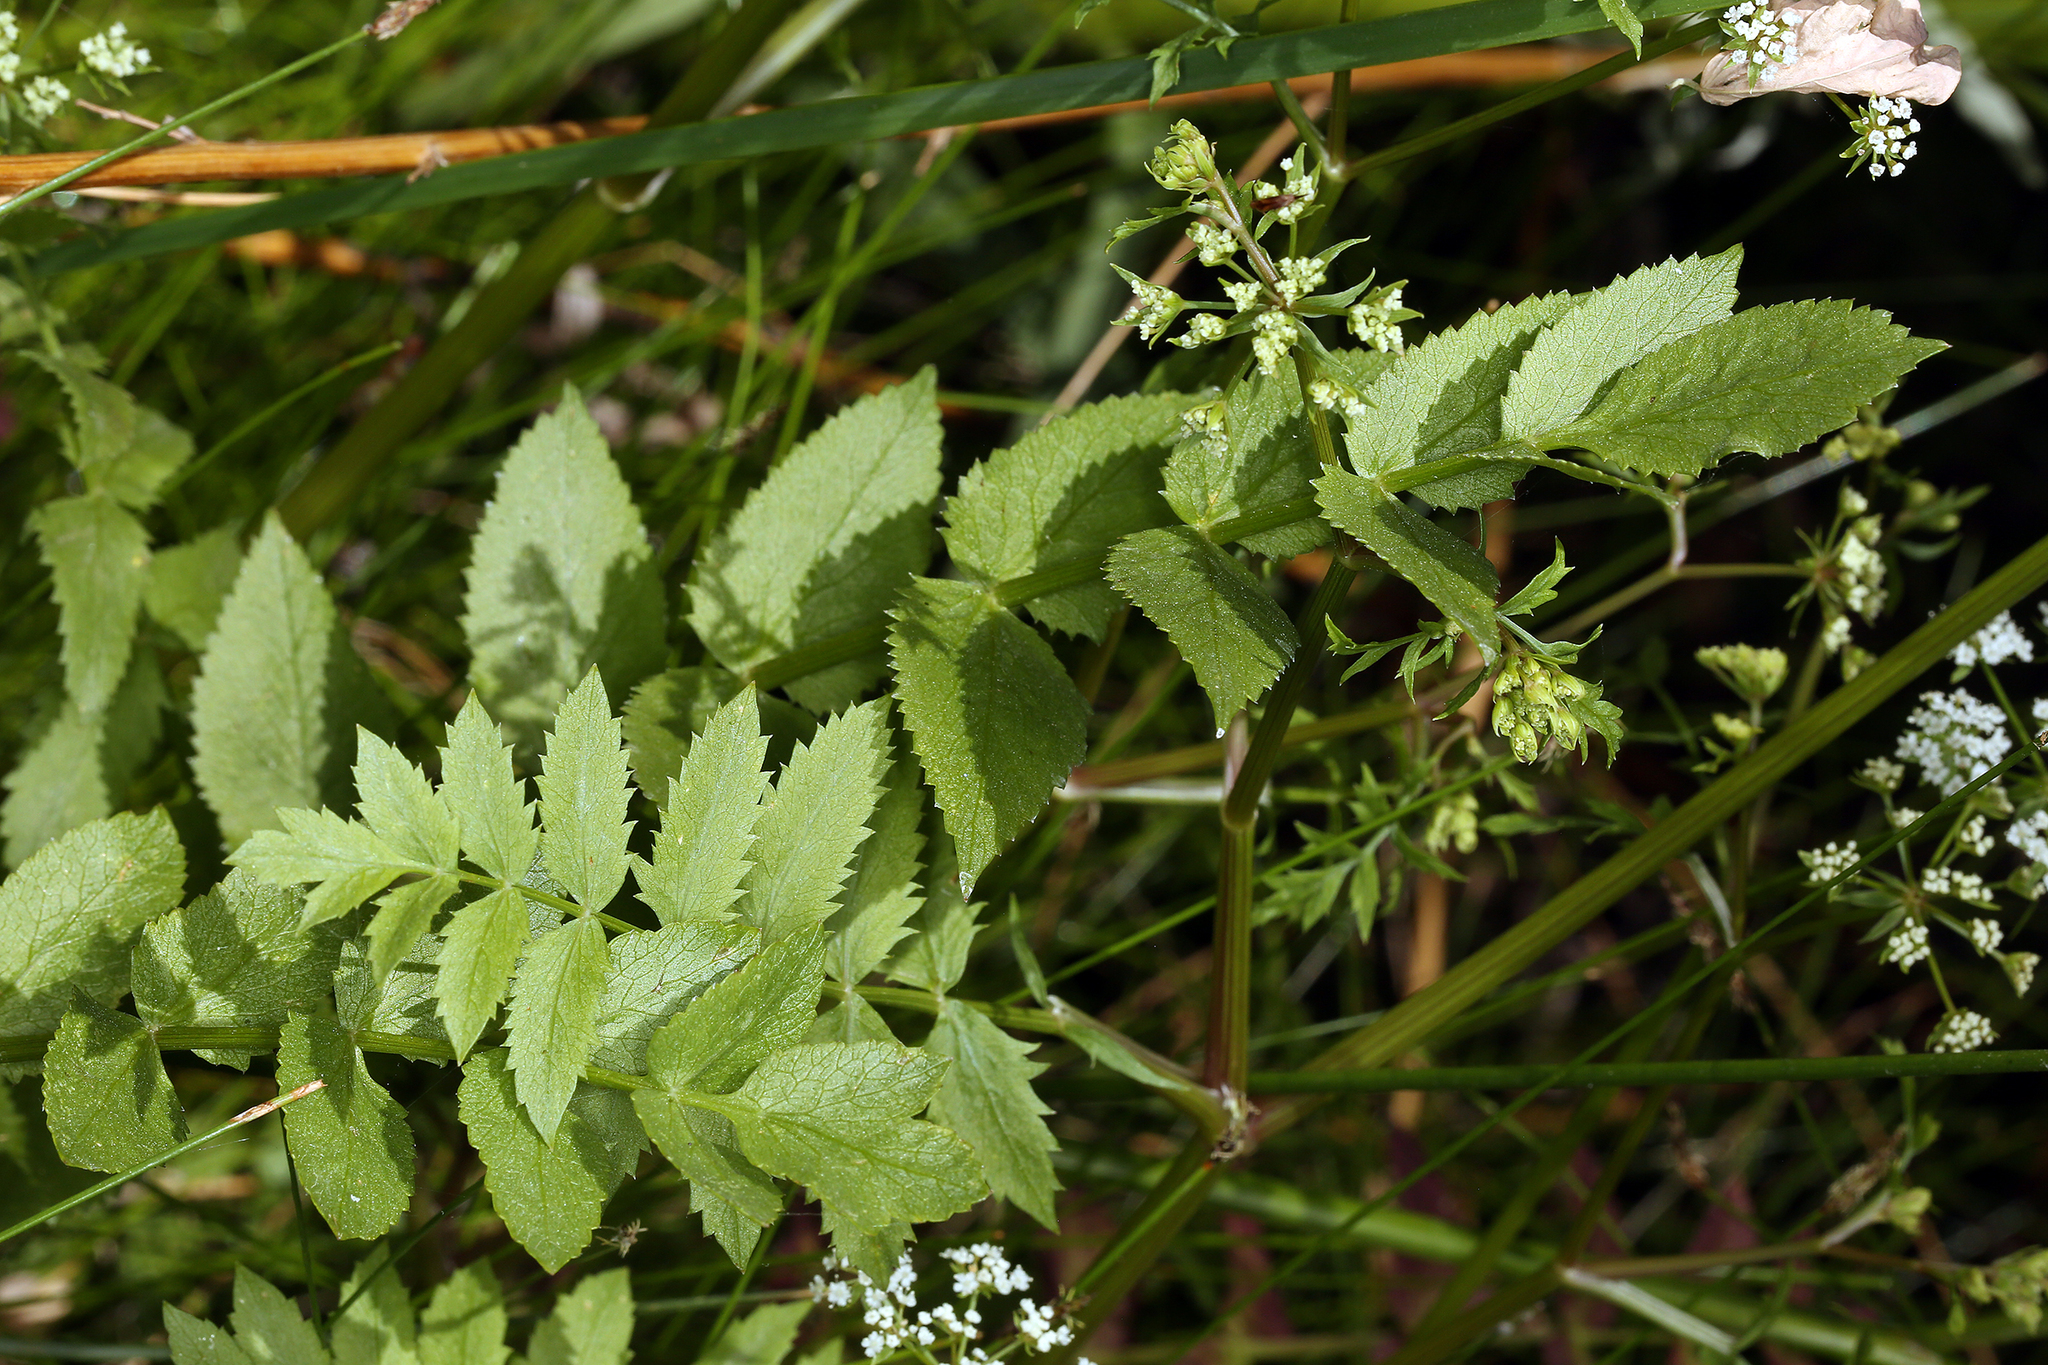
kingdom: Plantae
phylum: Tracheophyta
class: Magnoliopsida
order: Apiales
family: Apiaceae
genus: Berula
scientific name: Berula erecta
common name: Lesser water-parsnip
